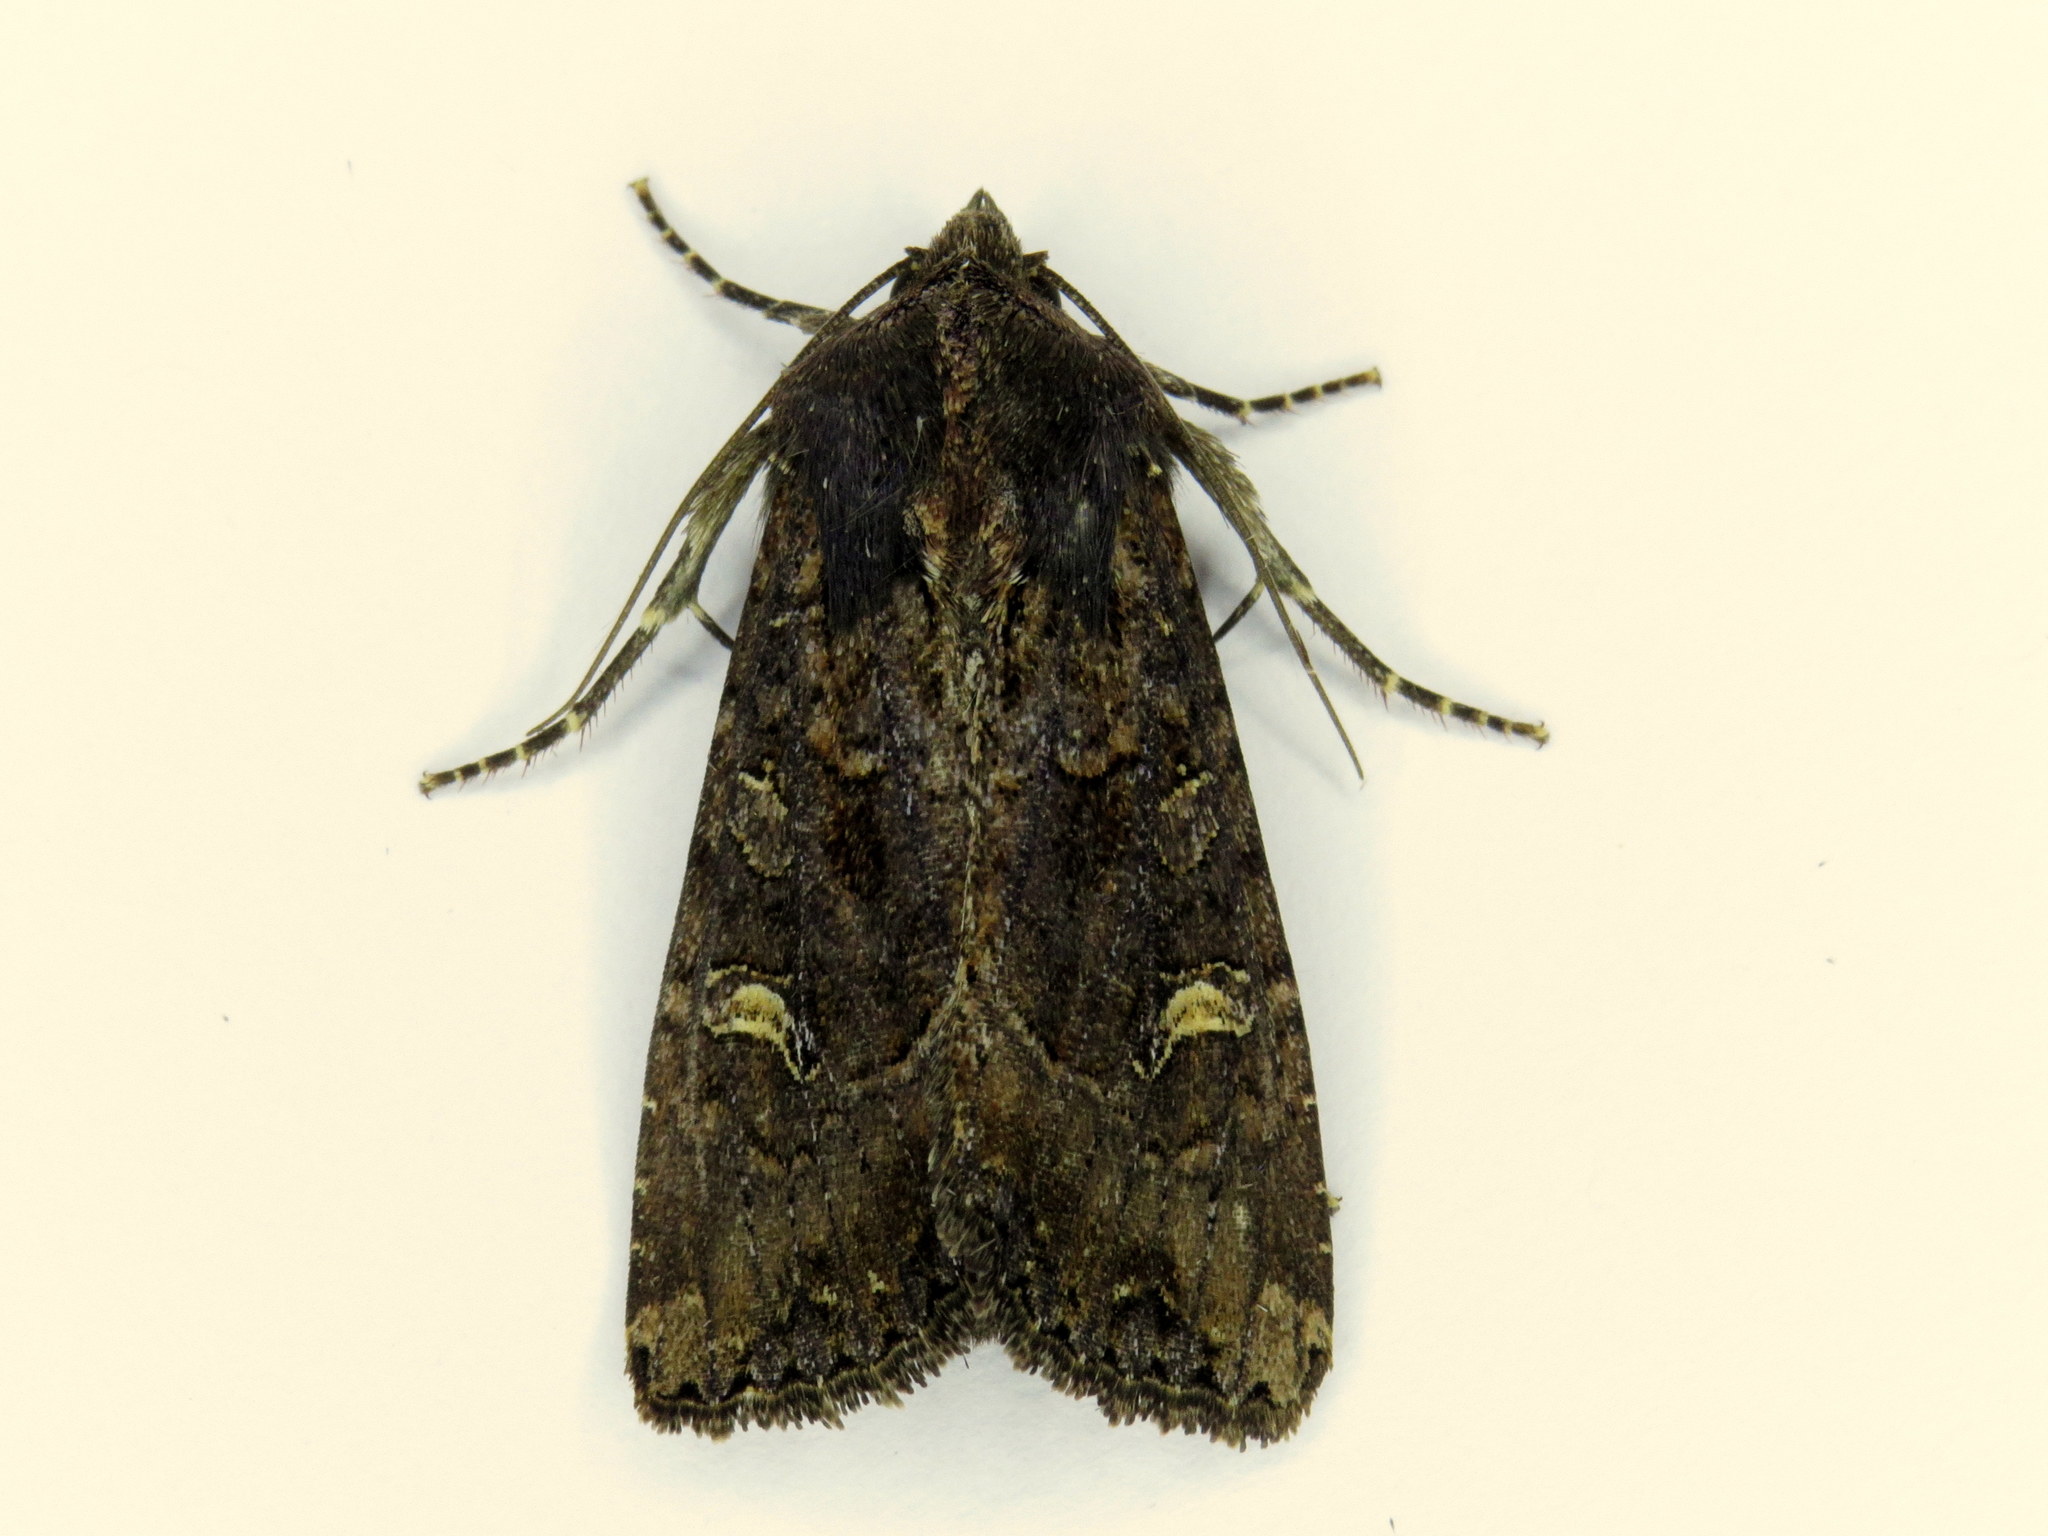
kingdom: Animalia
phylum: Arthropoda
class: Insecta
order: Lepidoptera
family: Noctuidae
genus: Helotropha
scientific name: Helotropha reniformis
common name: Kidney-spotted rustic moth
